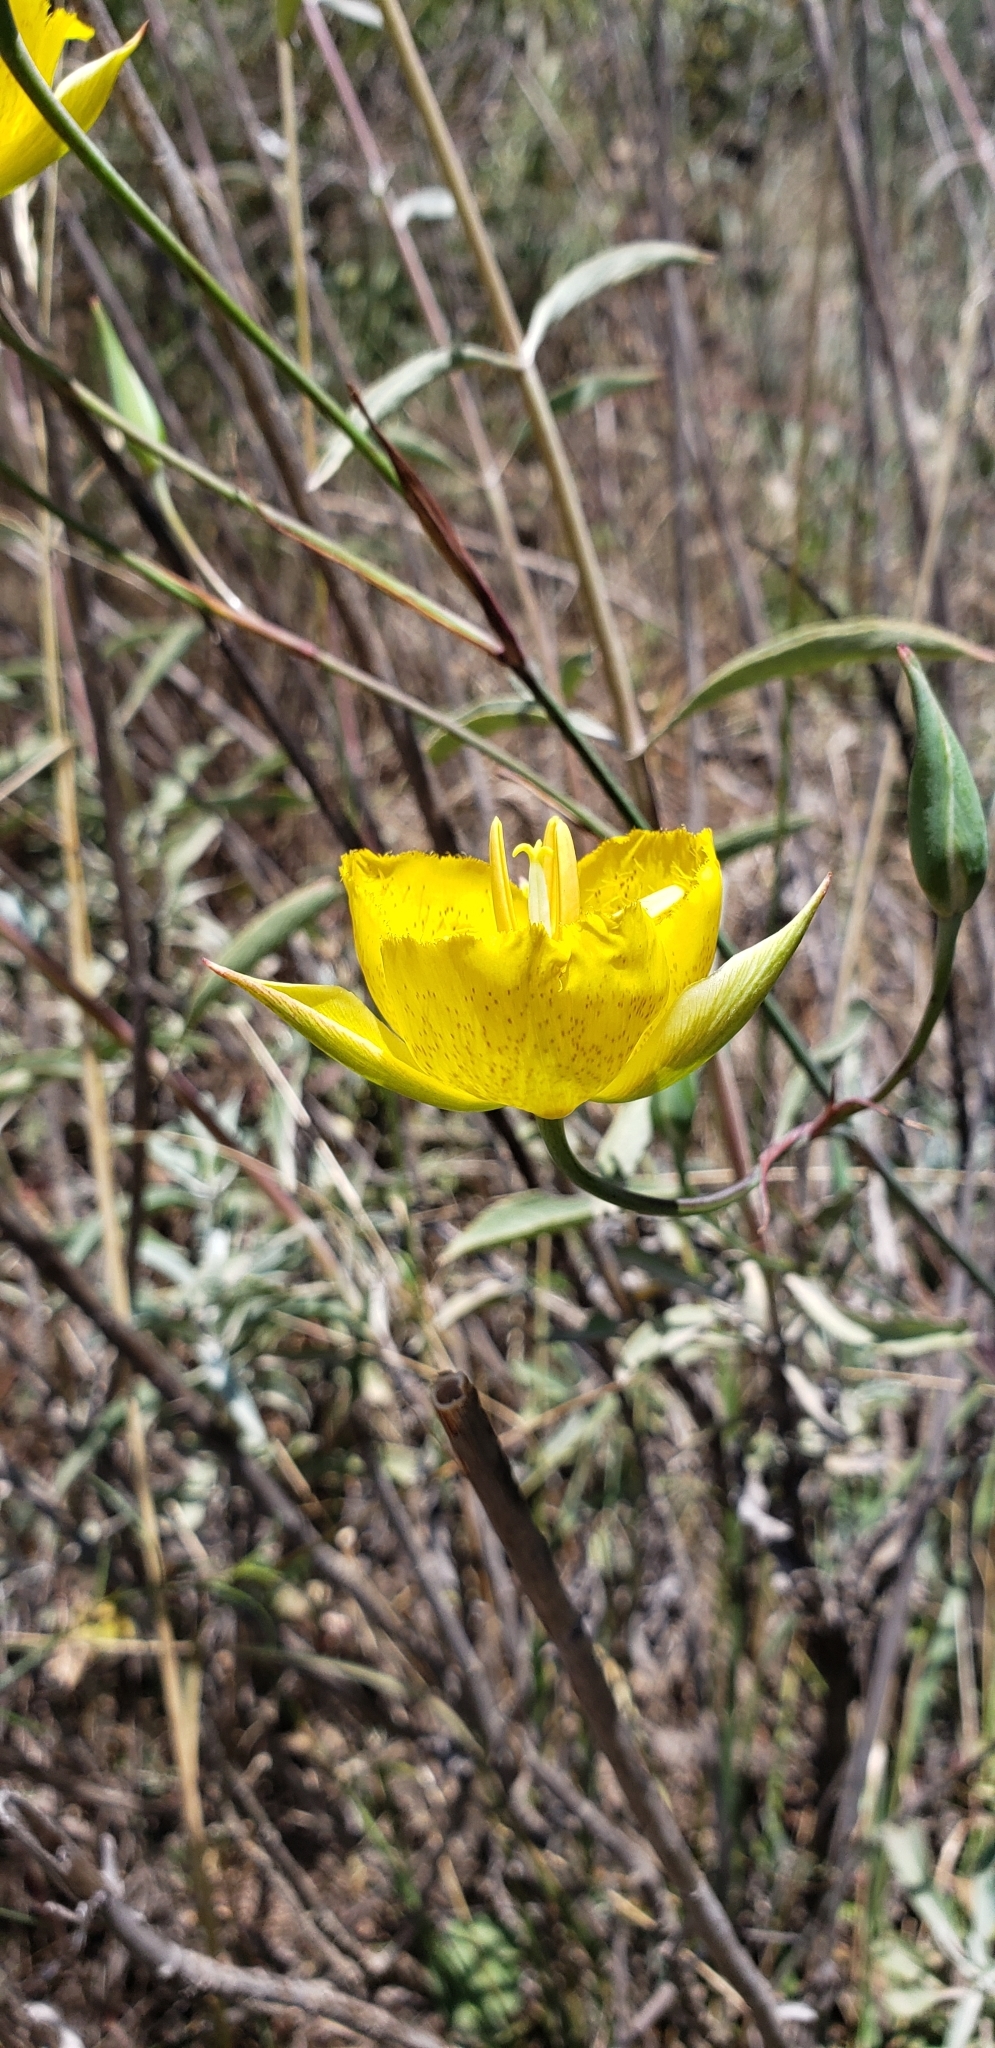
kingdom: Plantae
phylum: Tracheophyta
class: Liliopsida
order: Liliales
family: Liliaceae
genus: Calochortus
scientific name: Calochortus weedii
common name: Weed's mariposa-lily
